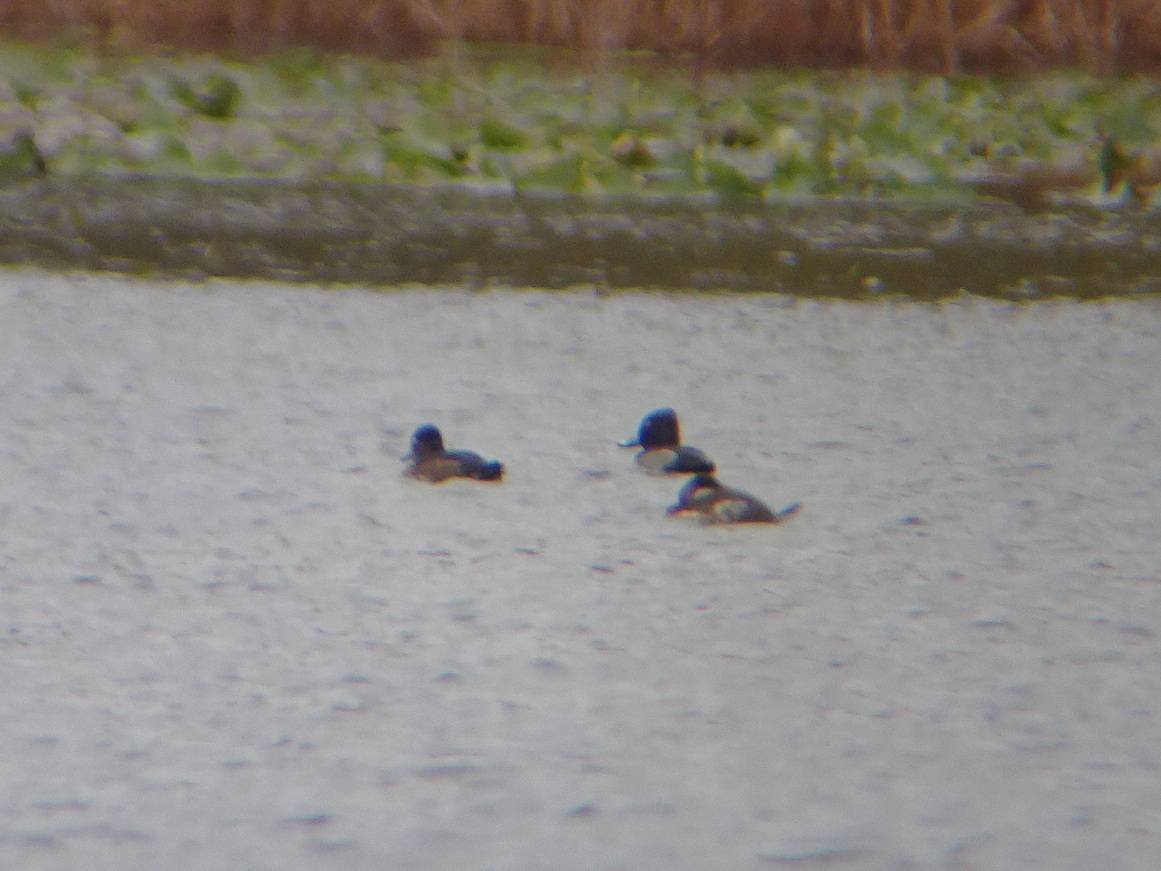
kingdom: Animalia
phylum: Chordata
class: Aves
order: Anseriformes
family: Anatidae
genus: Aythya
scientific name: Aythya collaris
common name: Ring-necked duck
